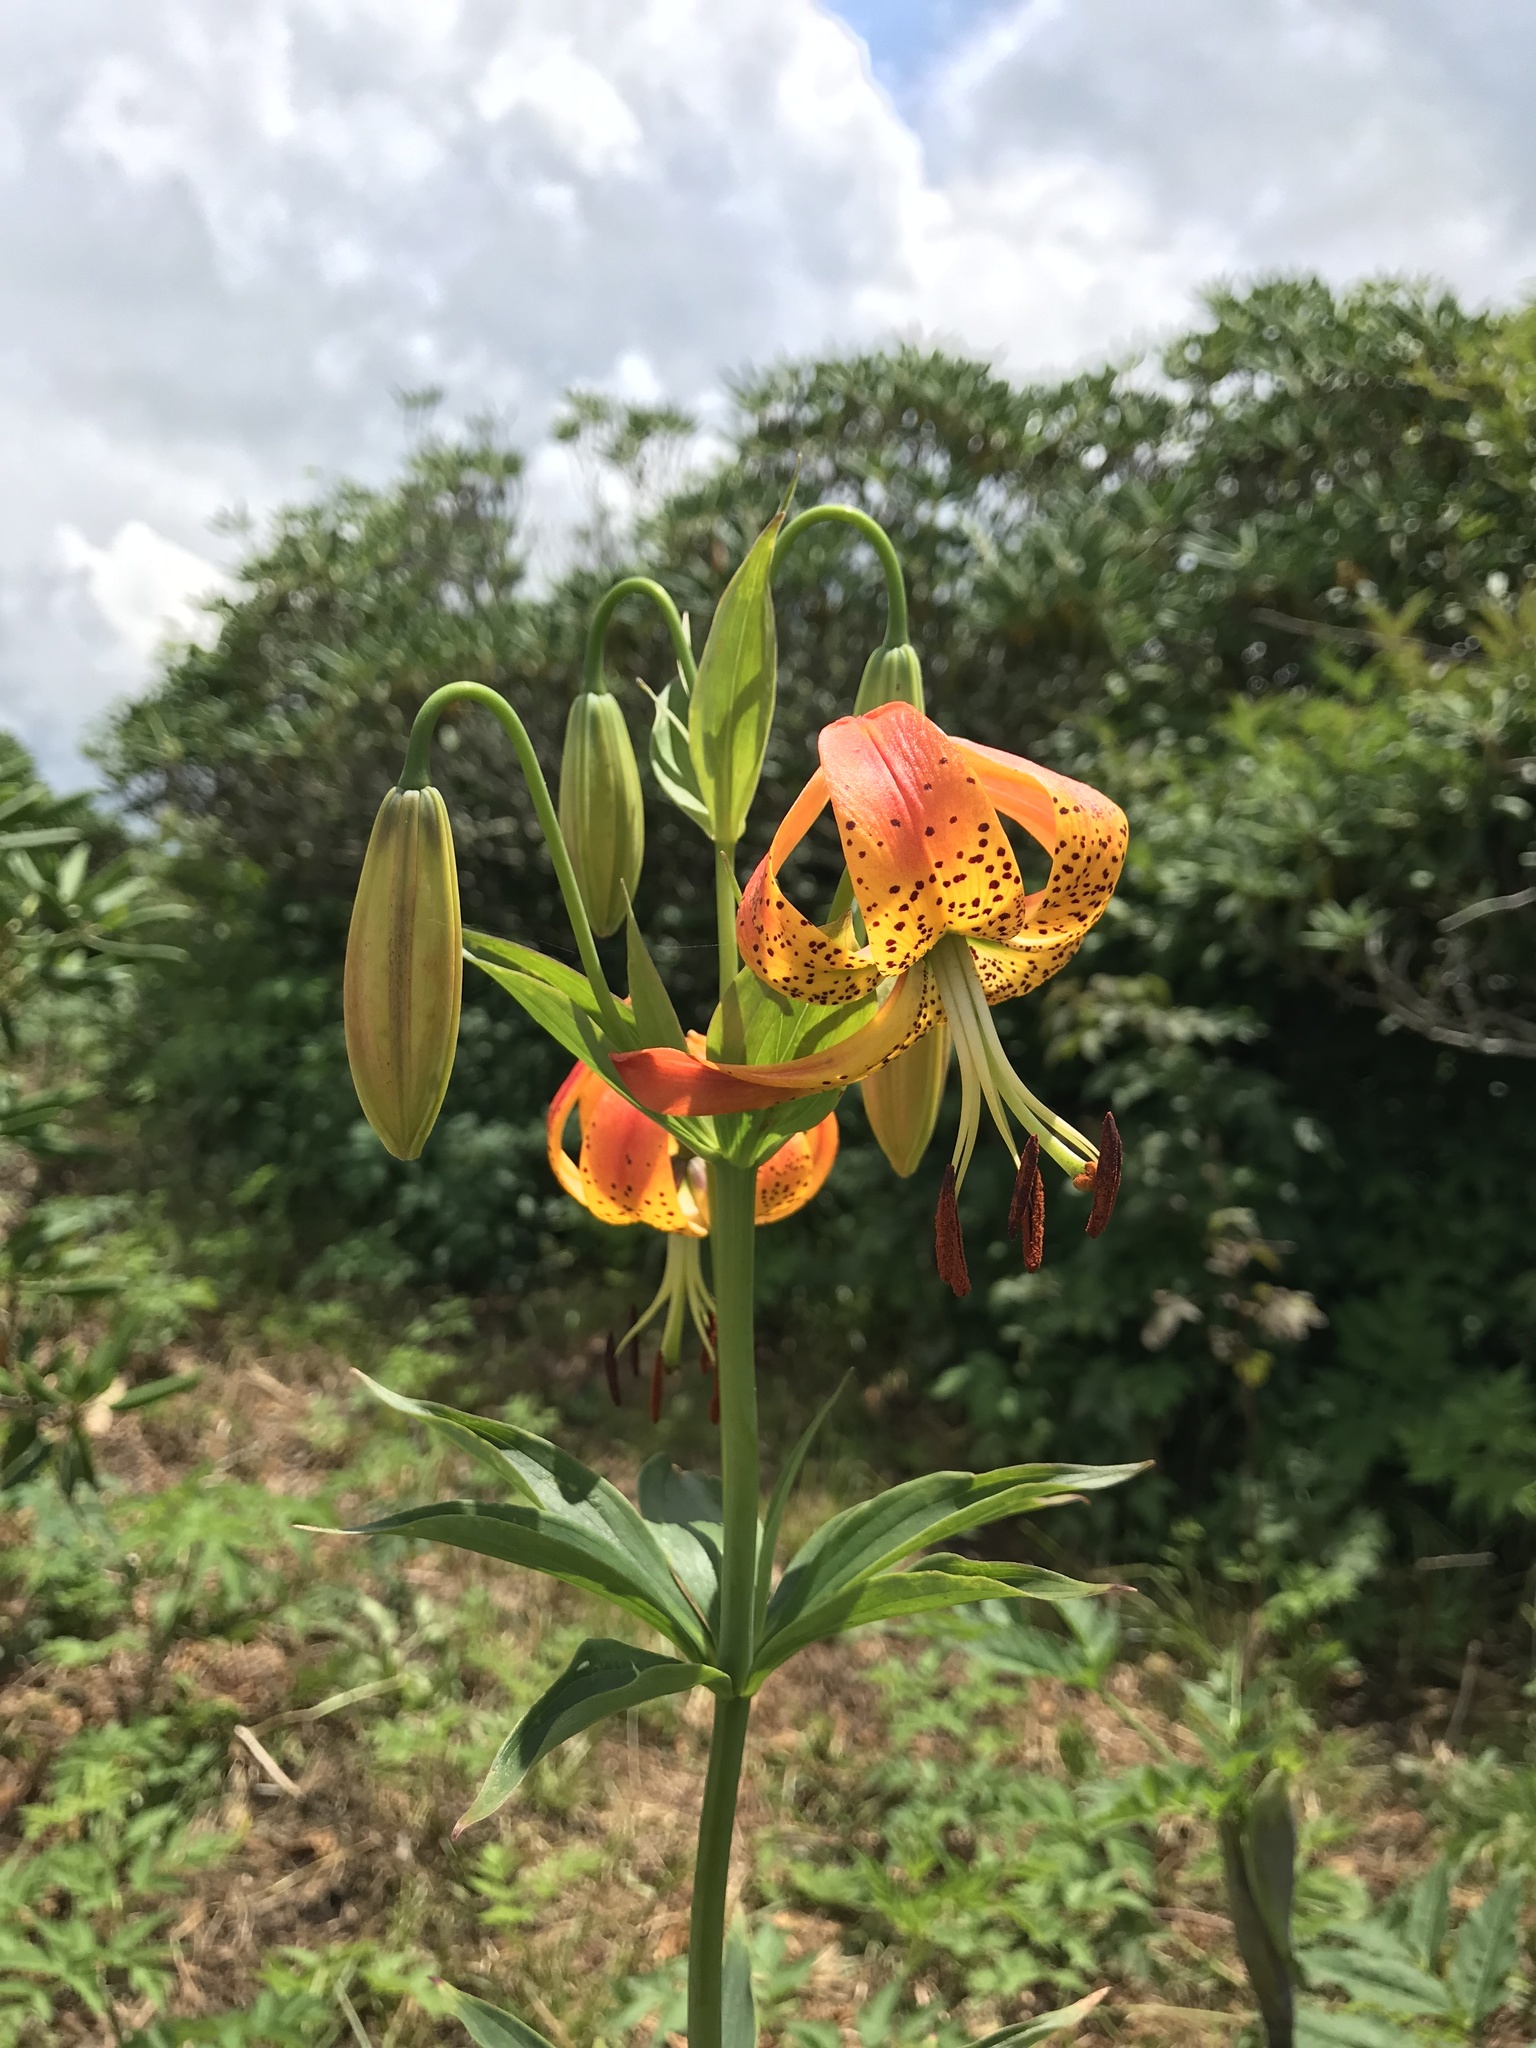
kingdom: Plantae
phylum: Tracheophyta
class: Liliopsida
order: Liliales
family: Liliaceae
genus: Lilium
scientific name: Lilium superbum
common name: American turk's-cap lily
